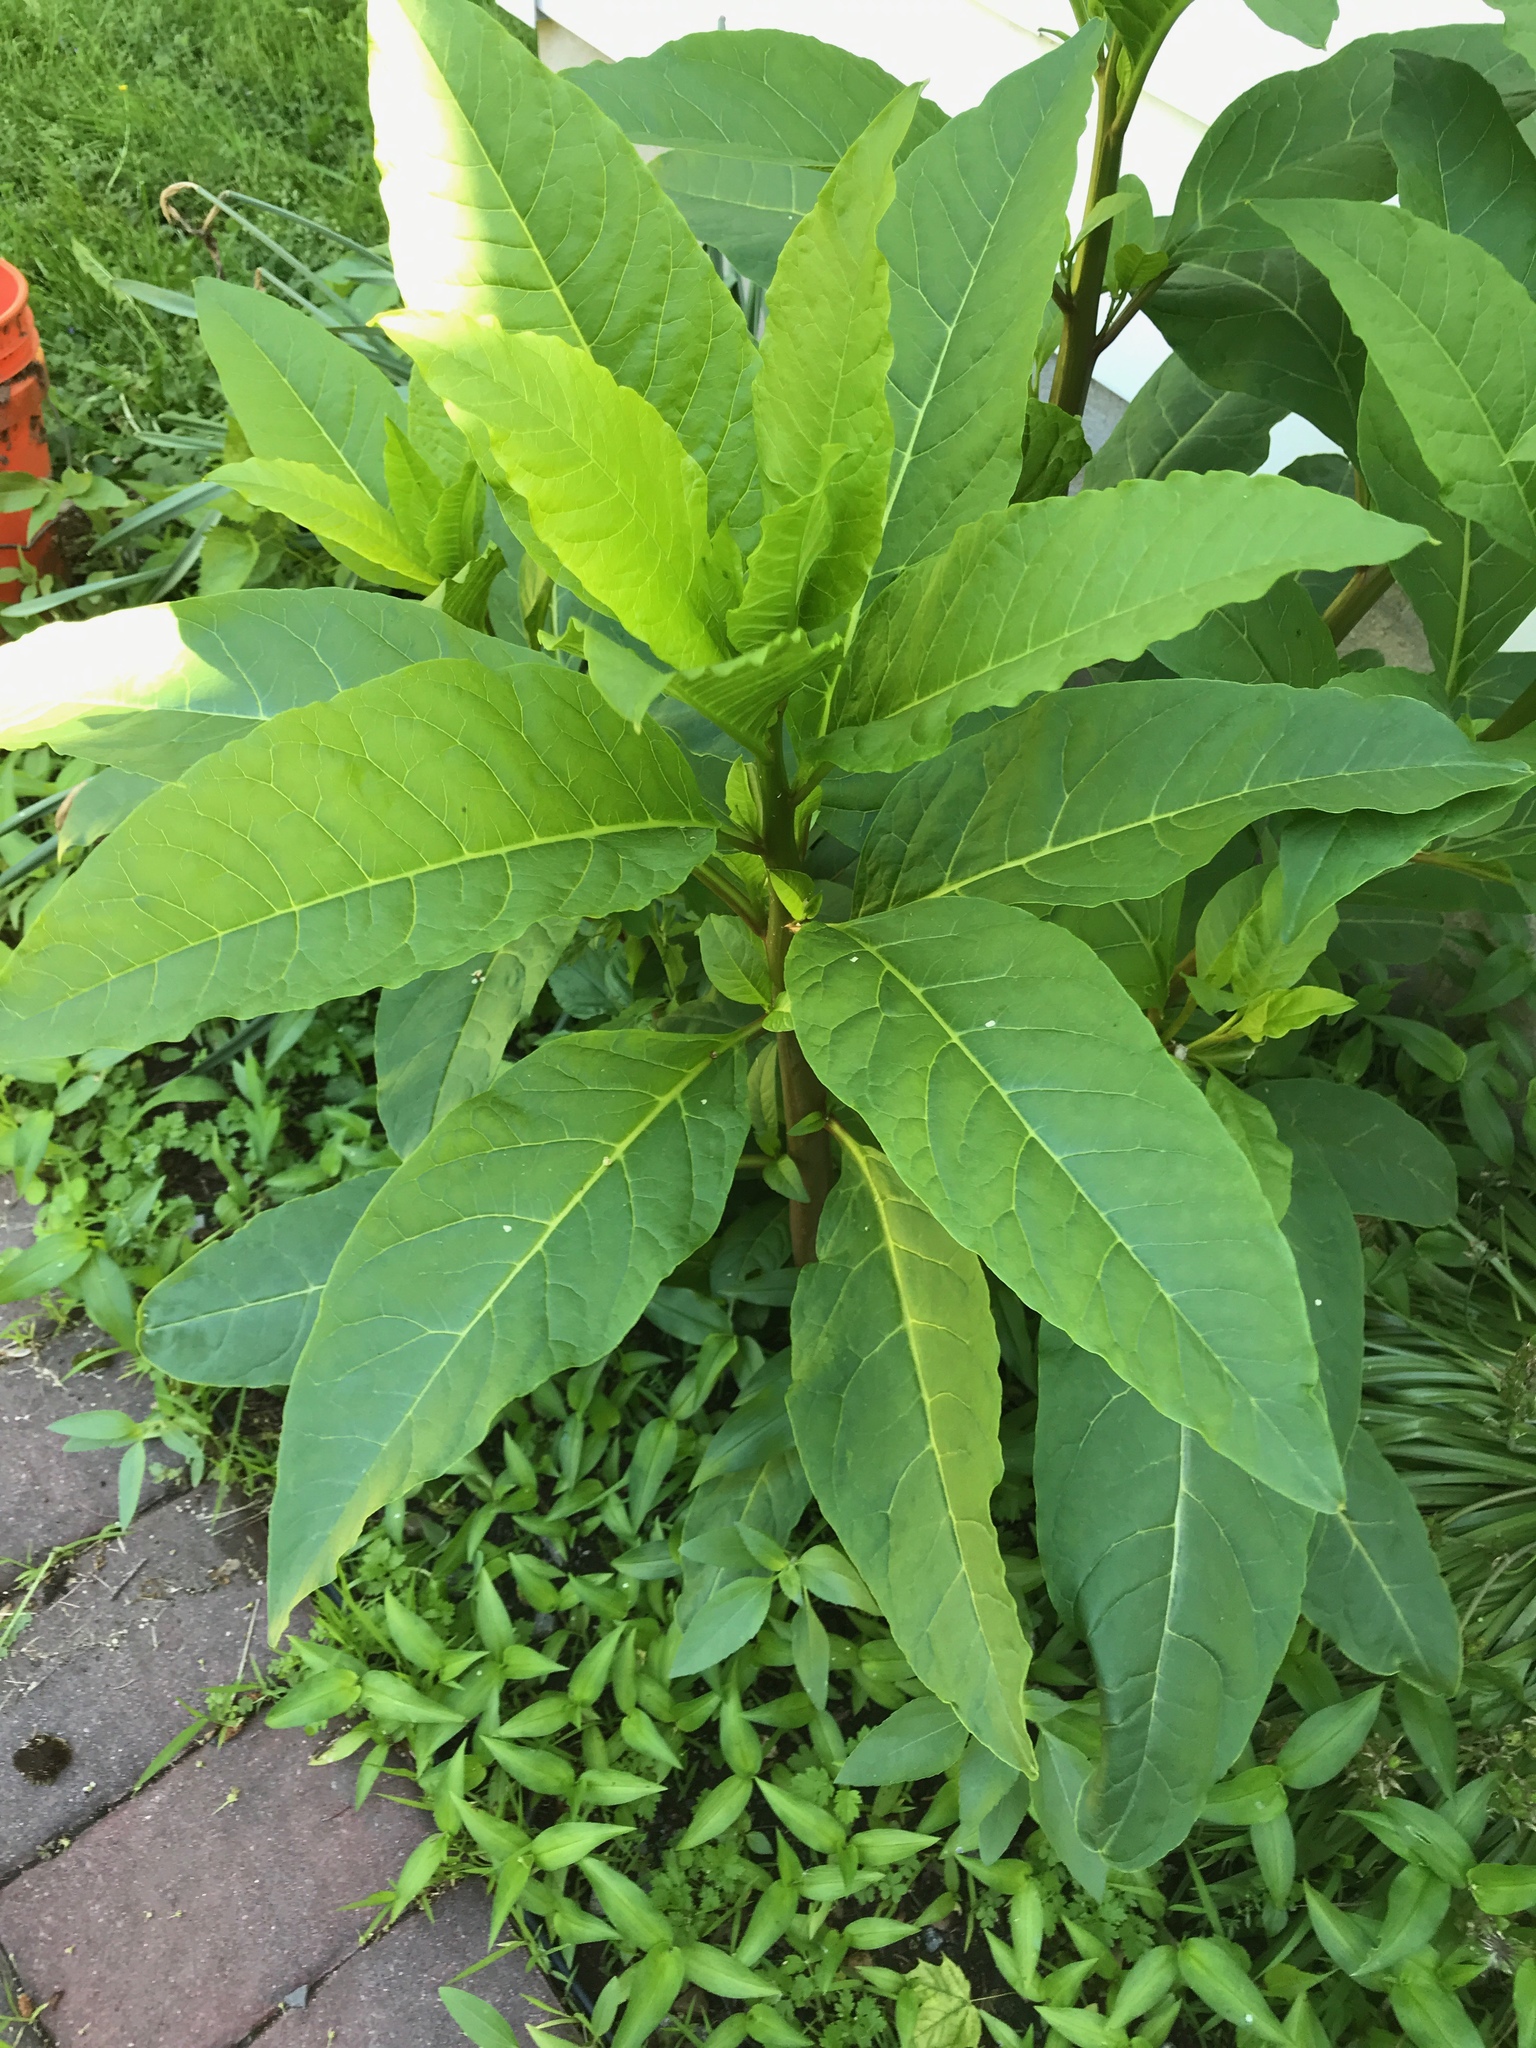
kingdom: Plantae
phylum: Tracheophyta
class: Magnoliopsida
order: Caryophyllales
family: Phytolaccaceae
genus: Phytolacca
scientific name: Phytolacca americana
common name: American pokeweed
